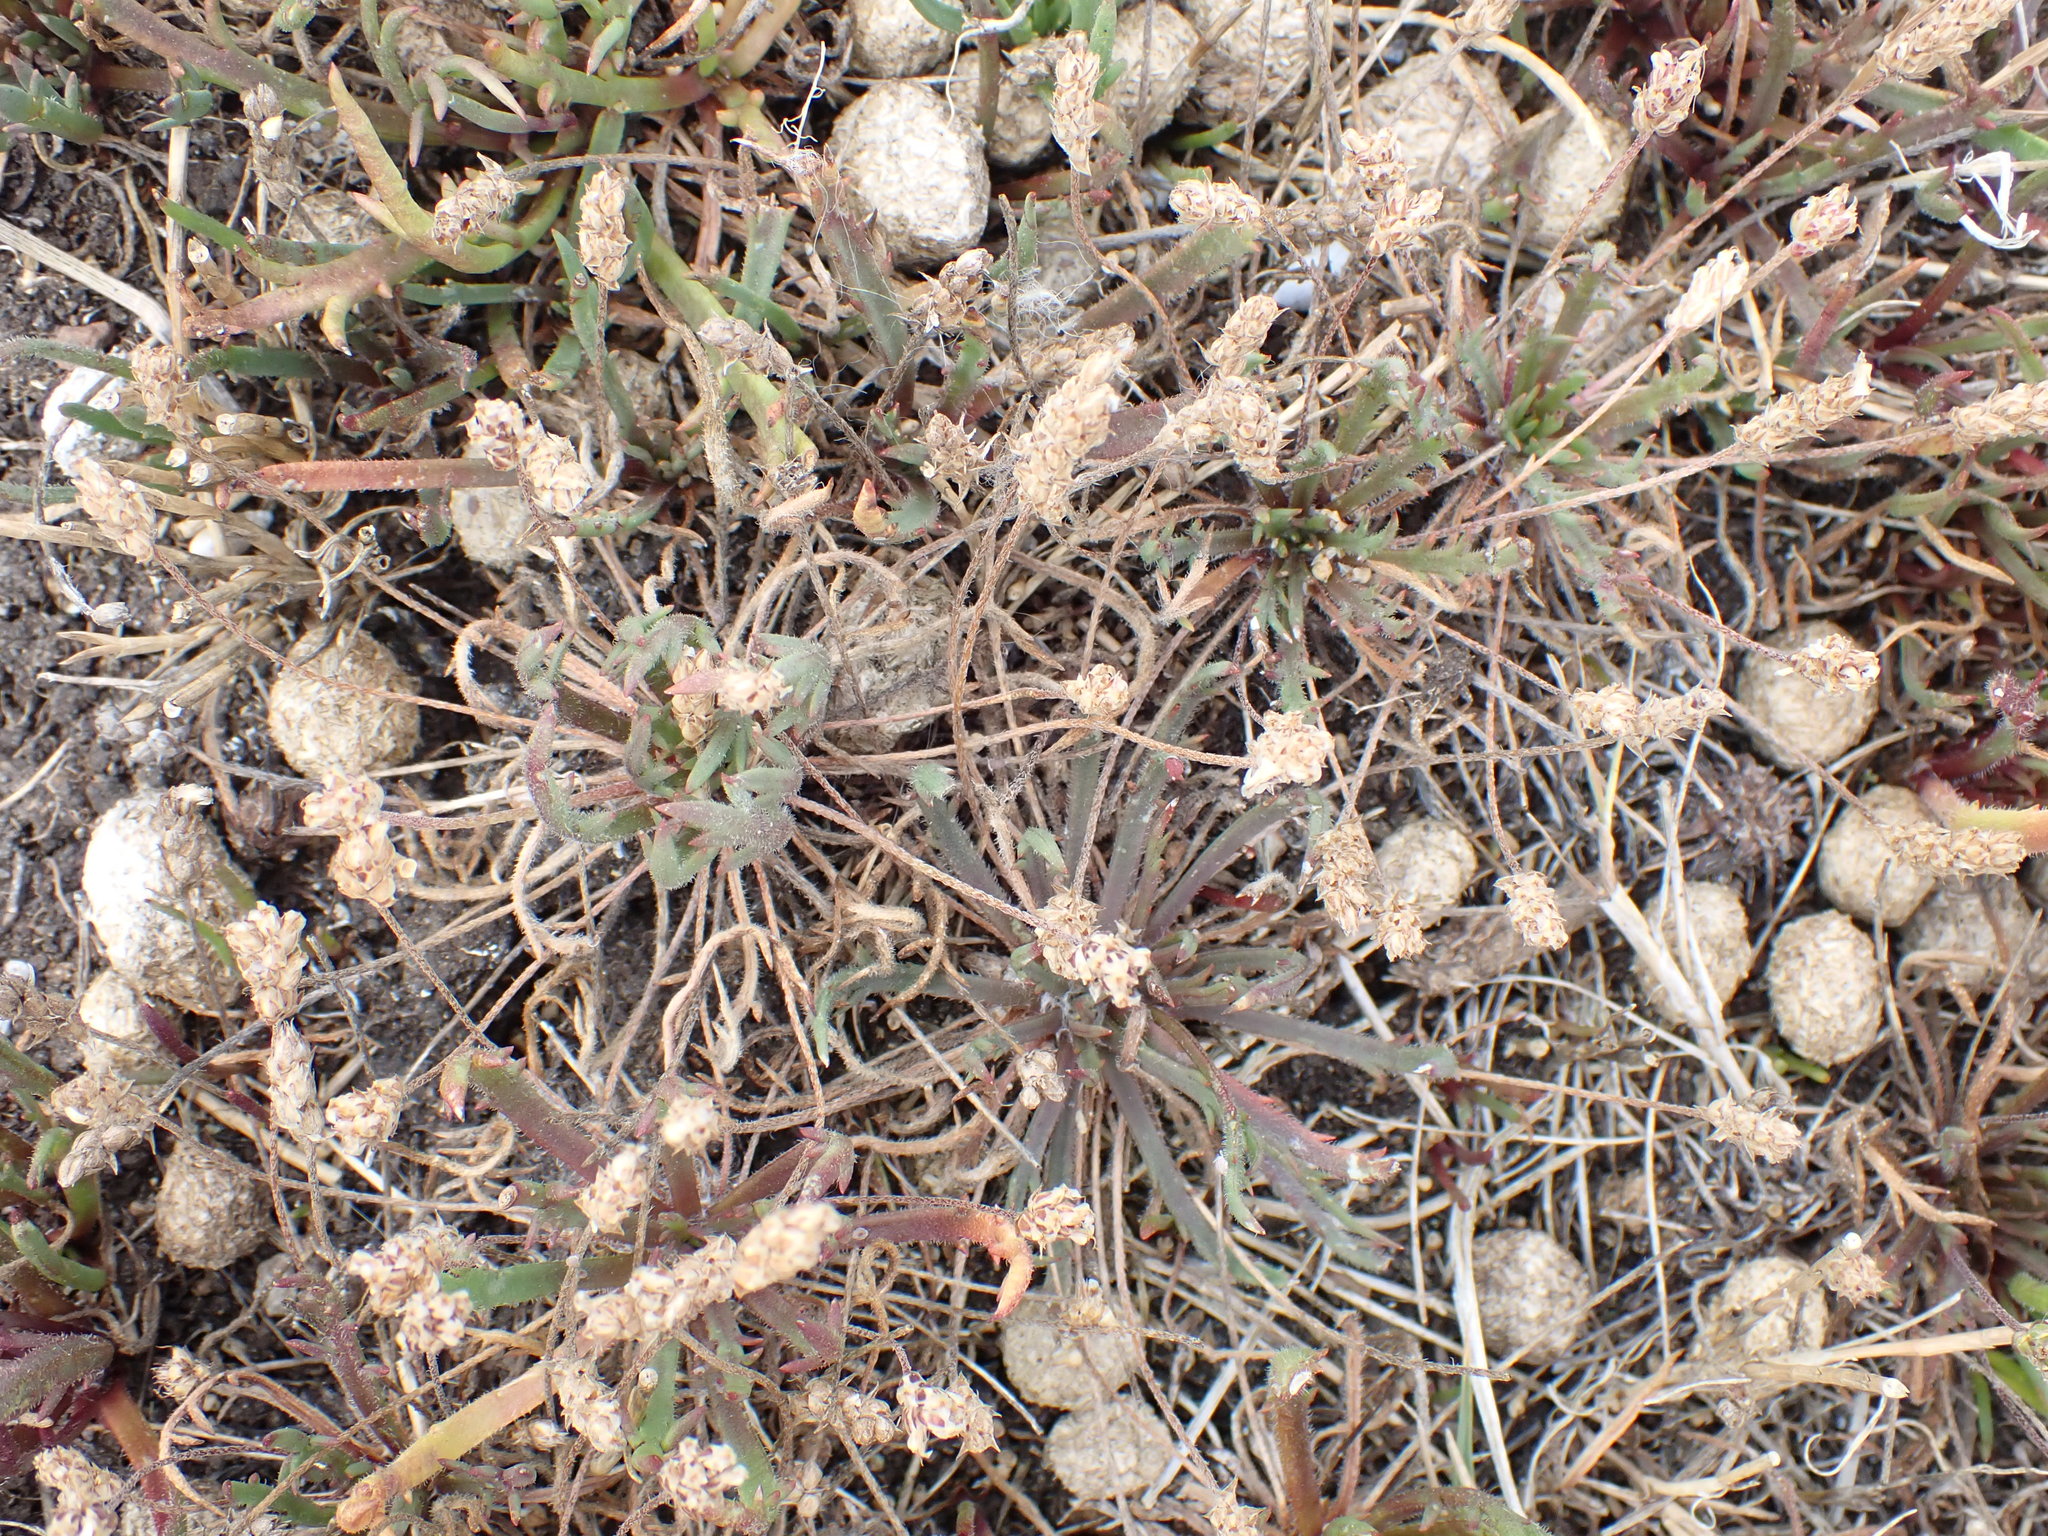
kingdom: Plantae
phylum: Tracheophyta
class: Magnoliopsida
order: Lamiales
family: Plantaginaceae
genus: Plantago
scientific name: Plantago coronopus
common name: Buck's-horn plantain
